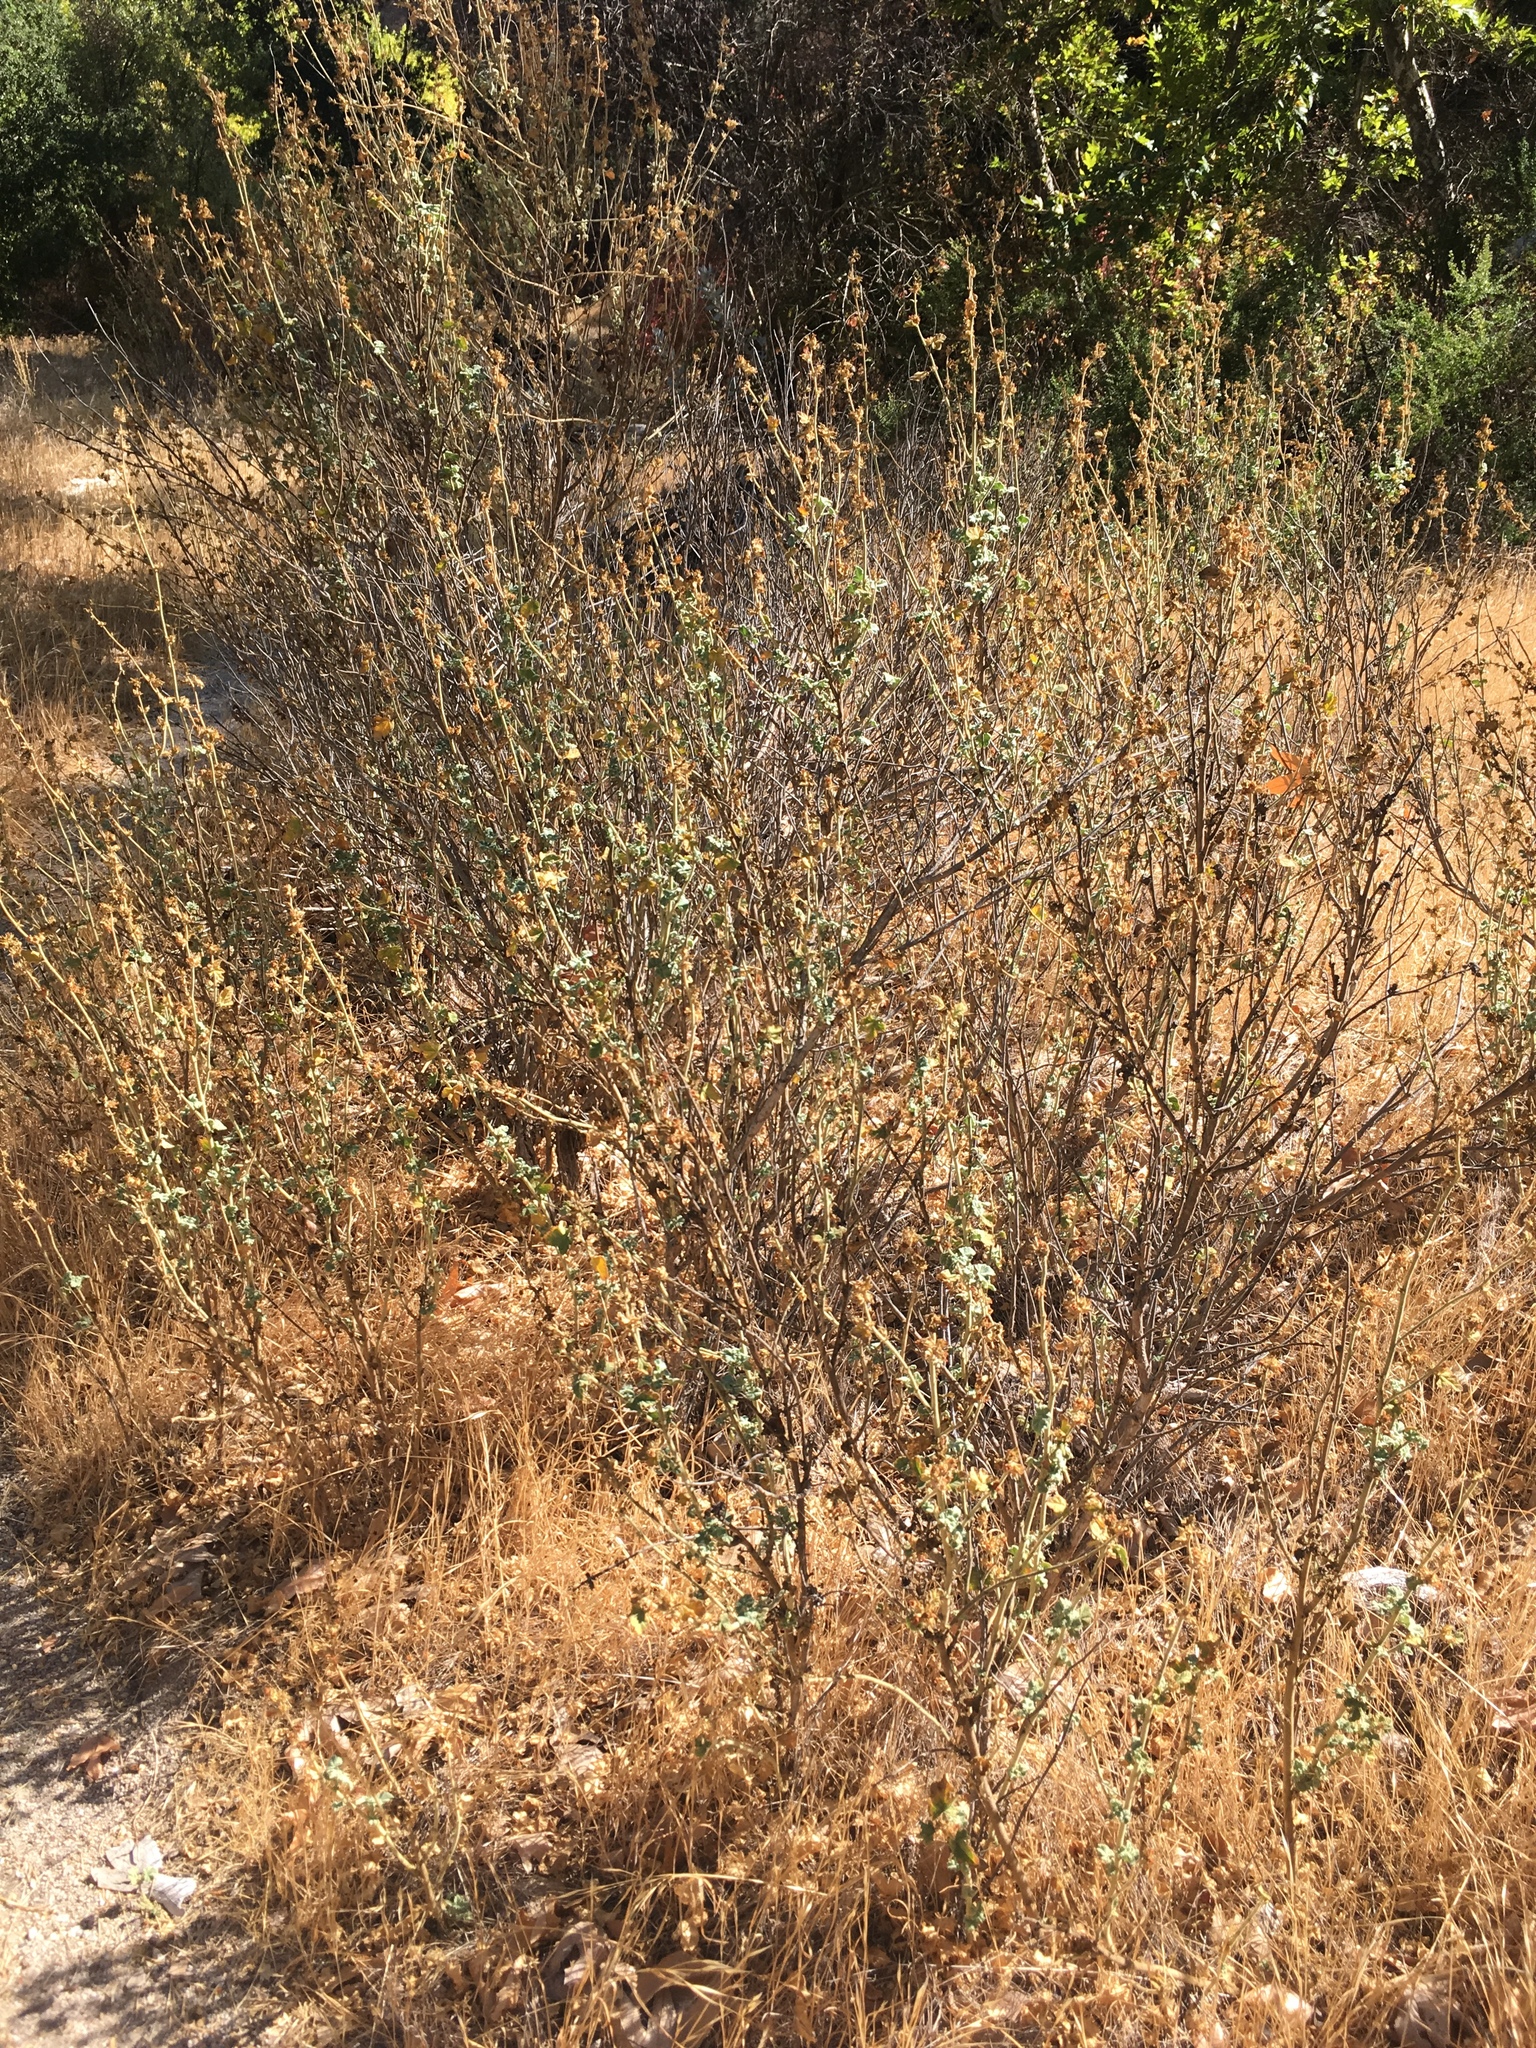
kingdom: Plantae
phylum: Tracheophyta
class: Magnoliopsida
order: Malvales
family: Malvaceae
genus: Malacothamnus
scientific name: Malacothamnus aboriginum
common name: Indian valley bush-mallow
